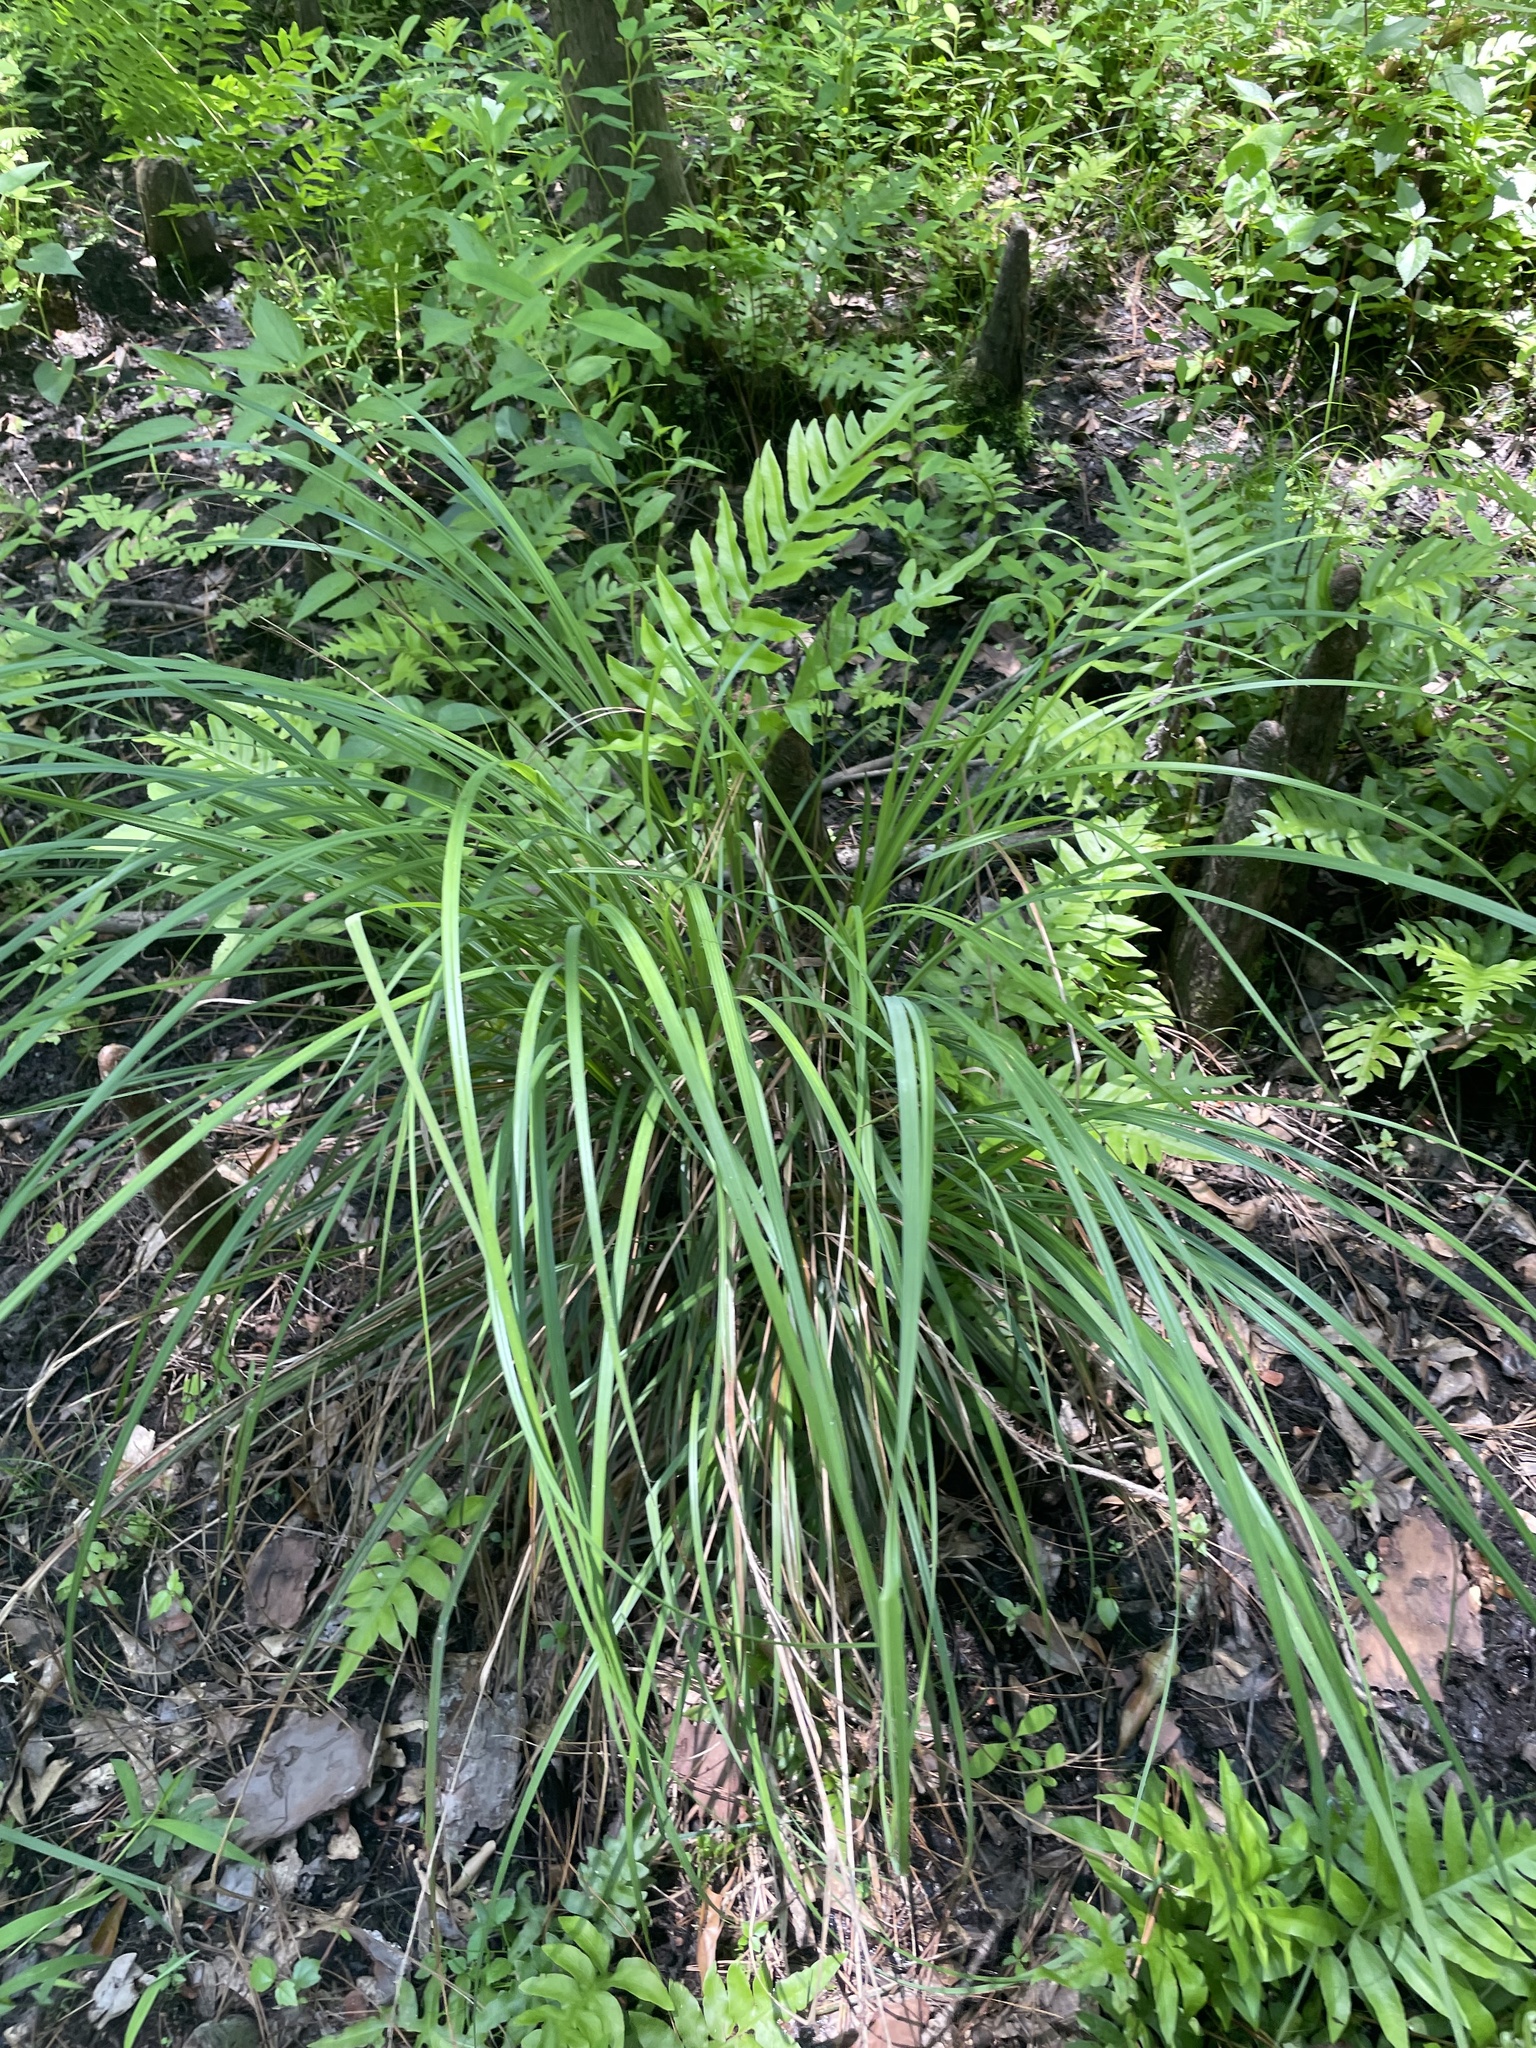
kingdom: Plantae
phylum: Tracheophyta
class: Liliopsida
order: Poales
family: Cyperaceae
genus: Carex
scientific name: Carex joorii
